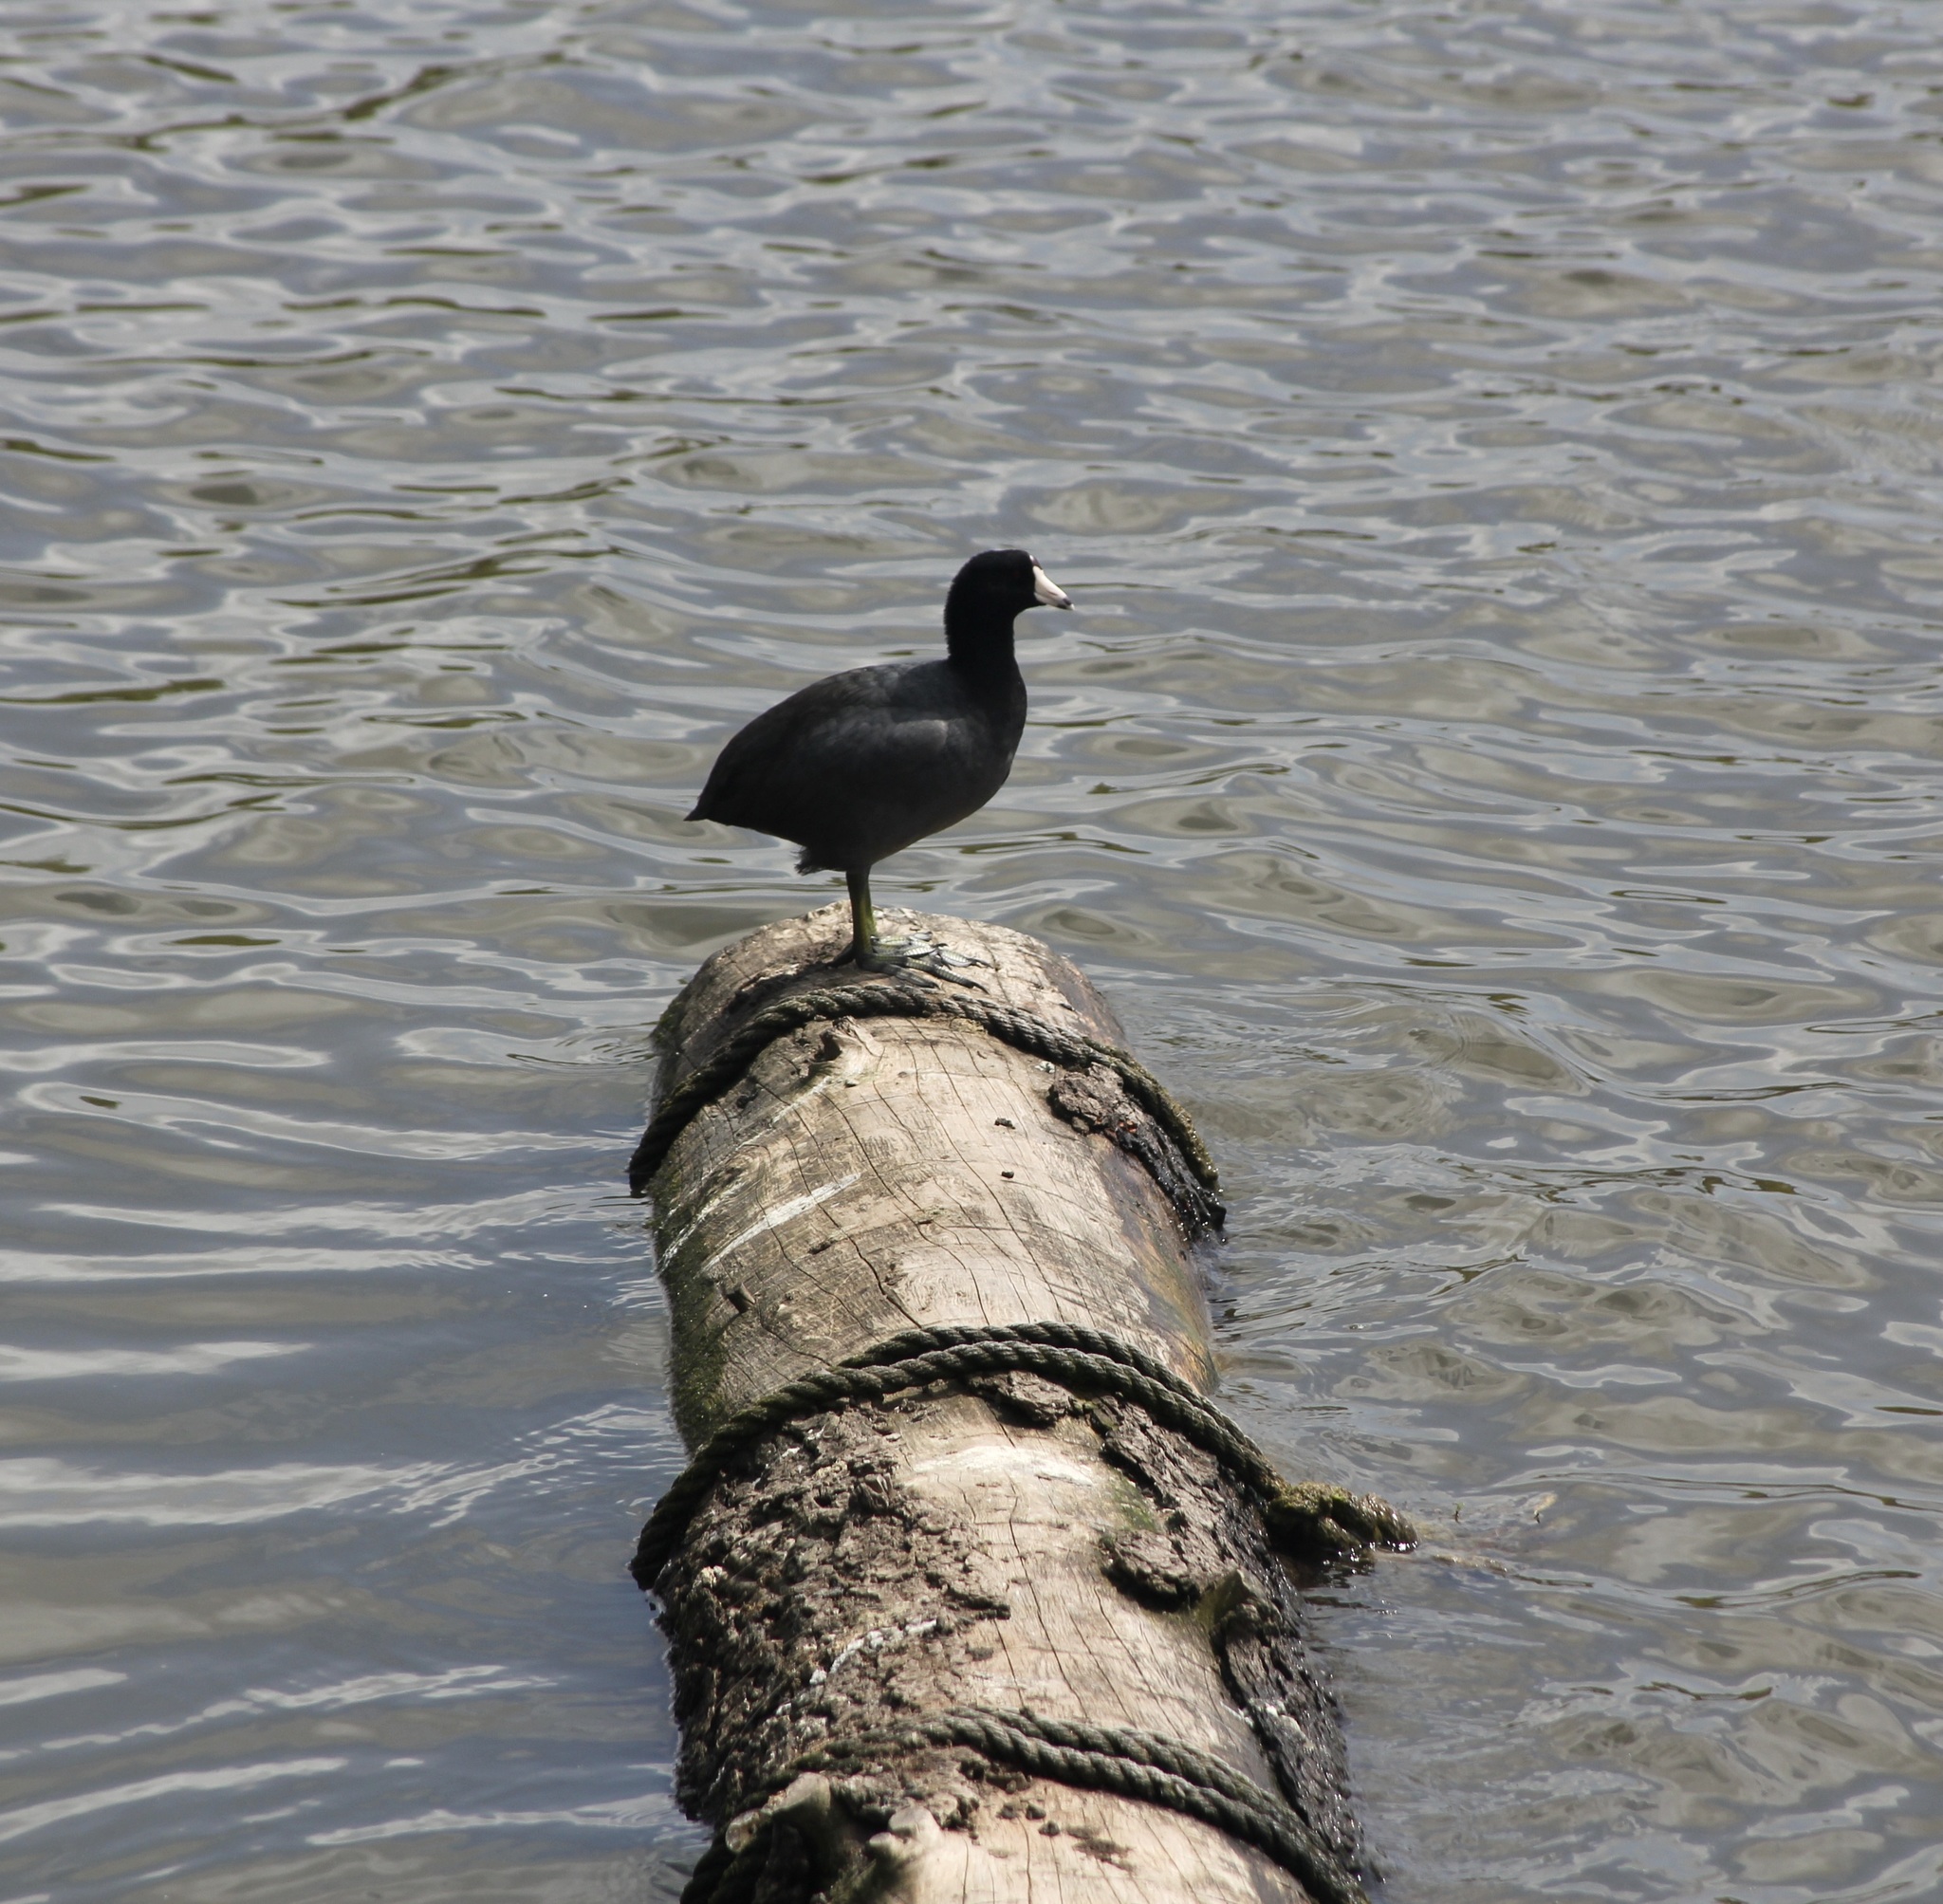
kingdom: Animalia
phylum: Chordata
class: Aves
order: Gruiformes
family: Rallidae
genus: Fulica
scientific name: Fulica americana
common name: American coot
